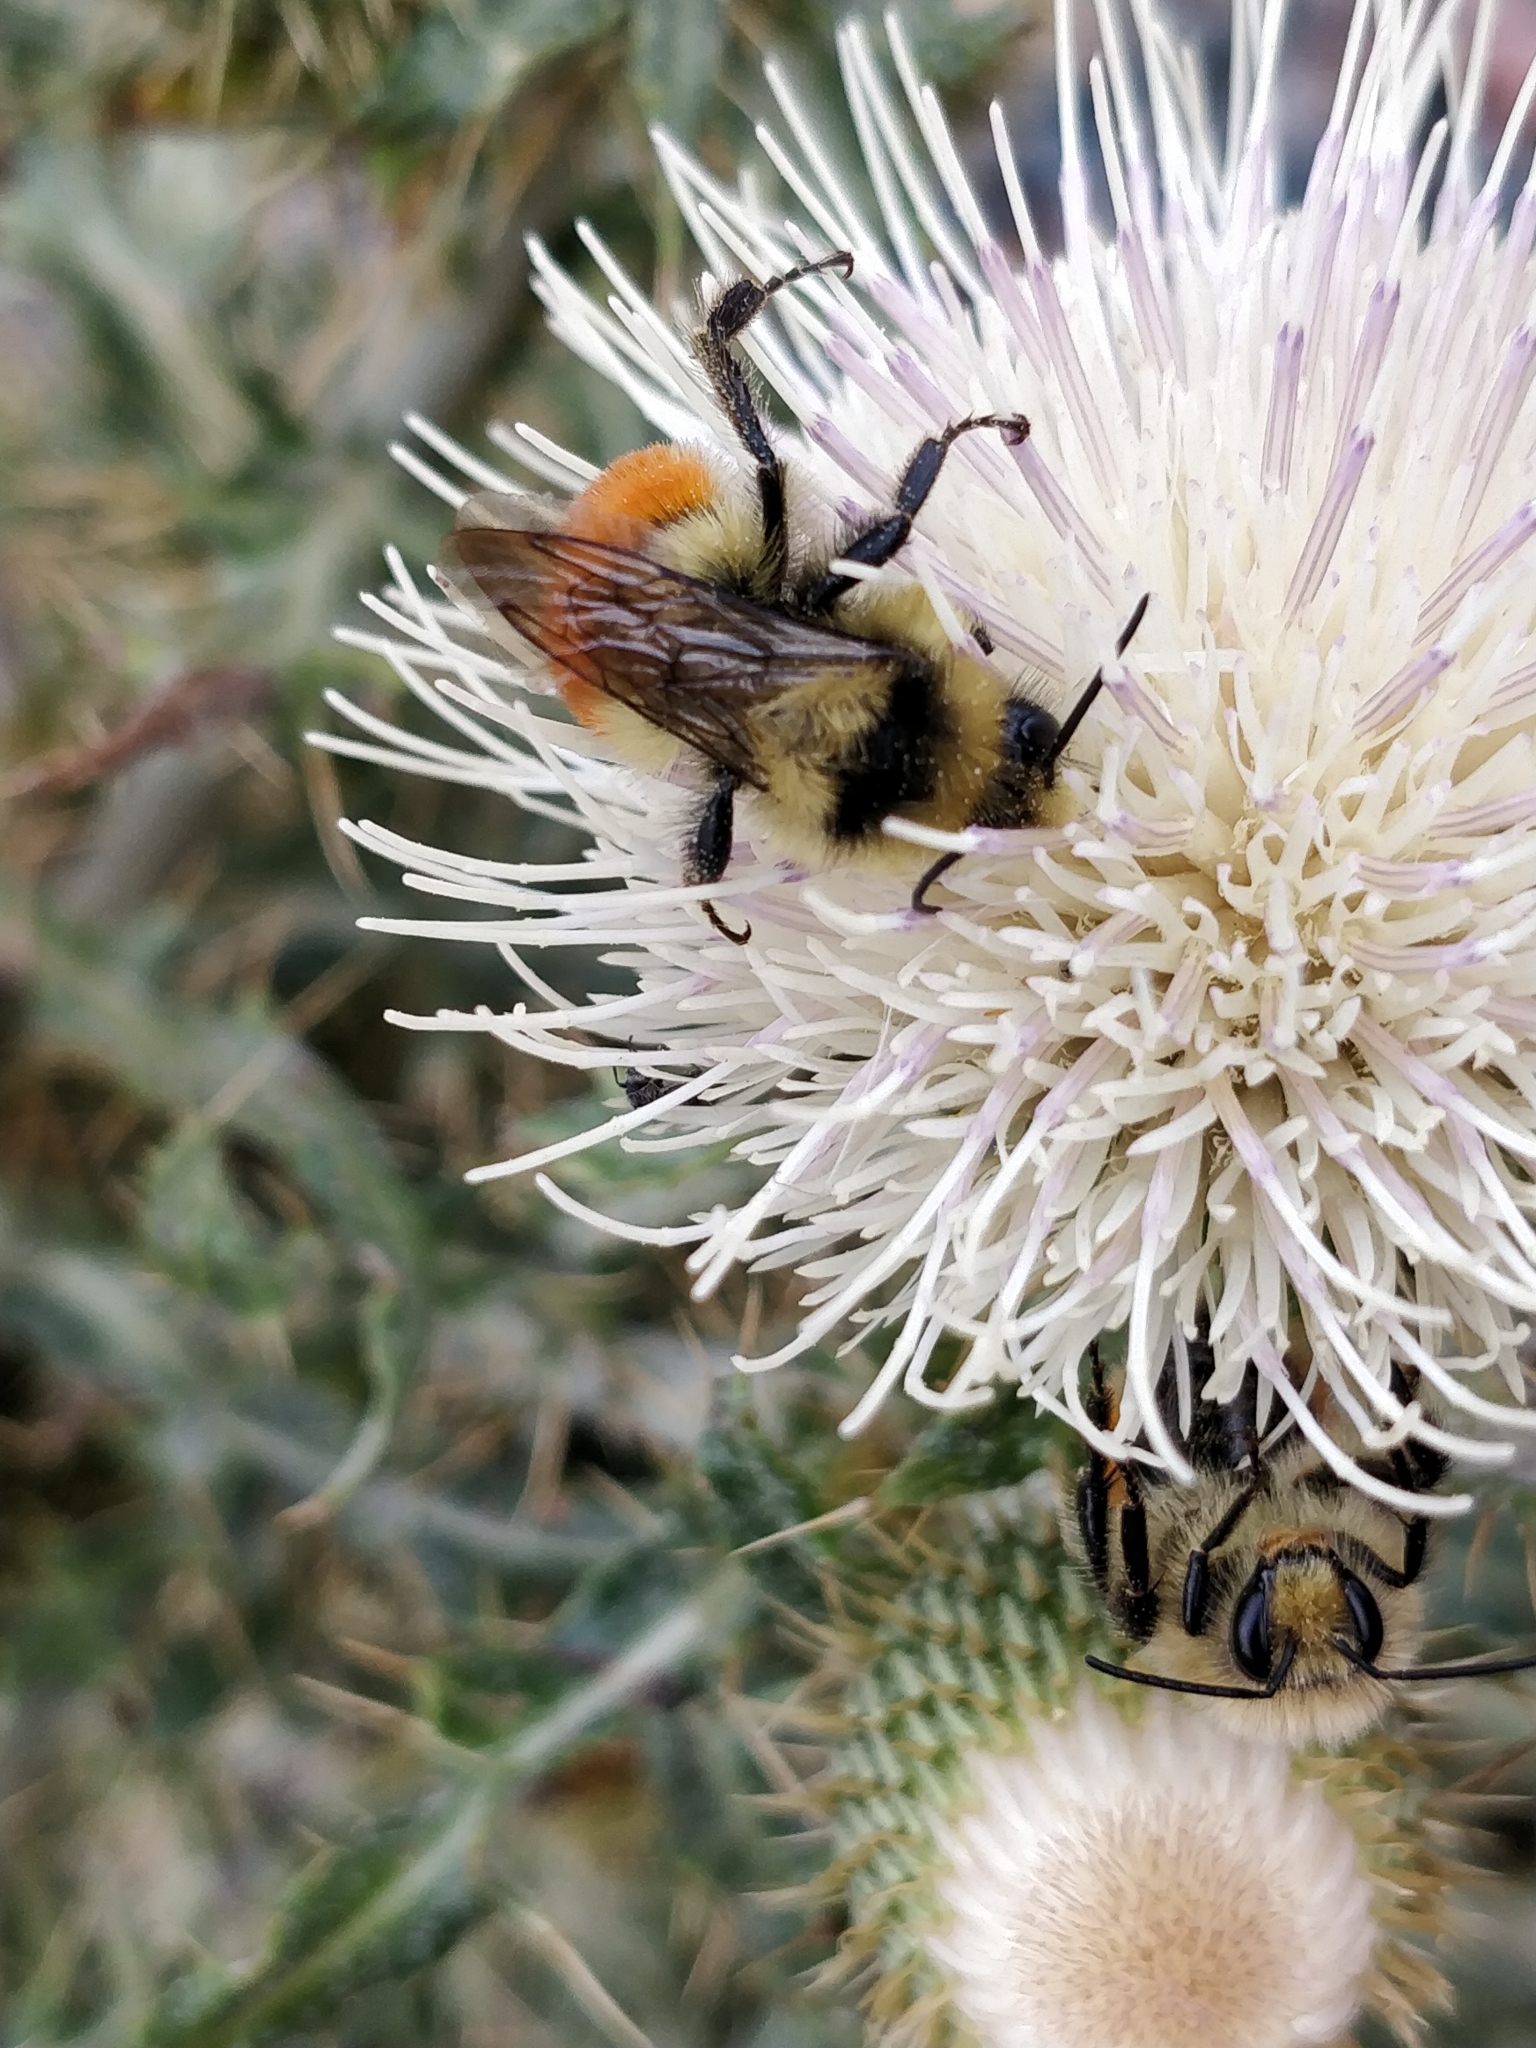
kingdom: Animalia
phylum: Arthropoda
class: Insecta
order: Hymenoptera
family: Apidae
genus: Bombus
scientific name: Bombus huntii
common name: Hunt bumble bee
